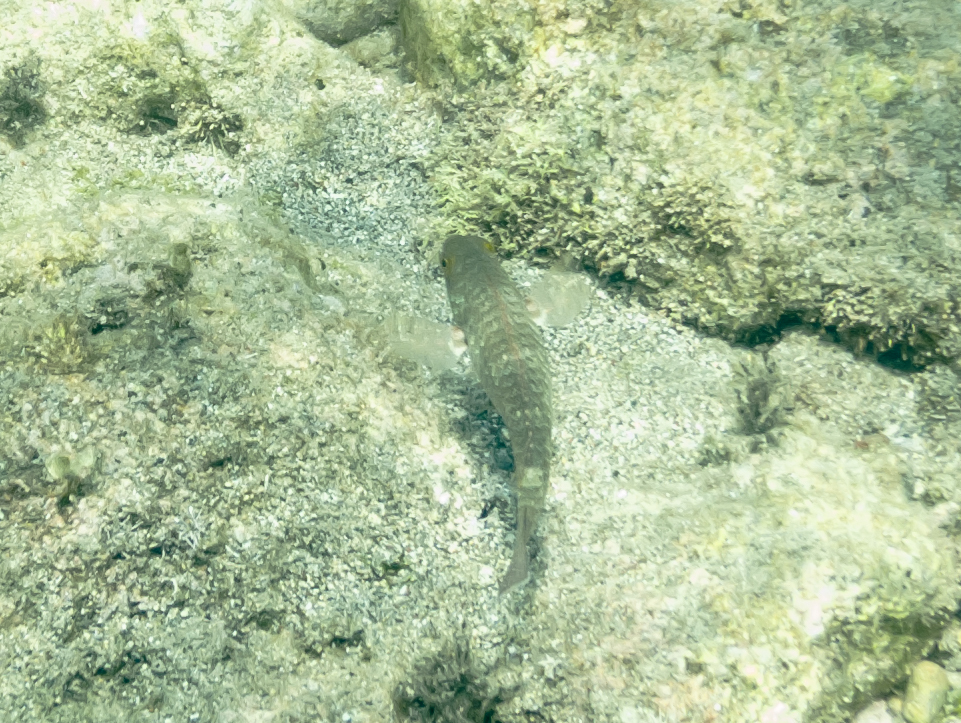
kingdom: Animalia
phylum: Chordata
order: Perciformes
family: Scaridae
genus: Sparisoma
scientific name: Sparisoma cretense
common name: Parrotfish
